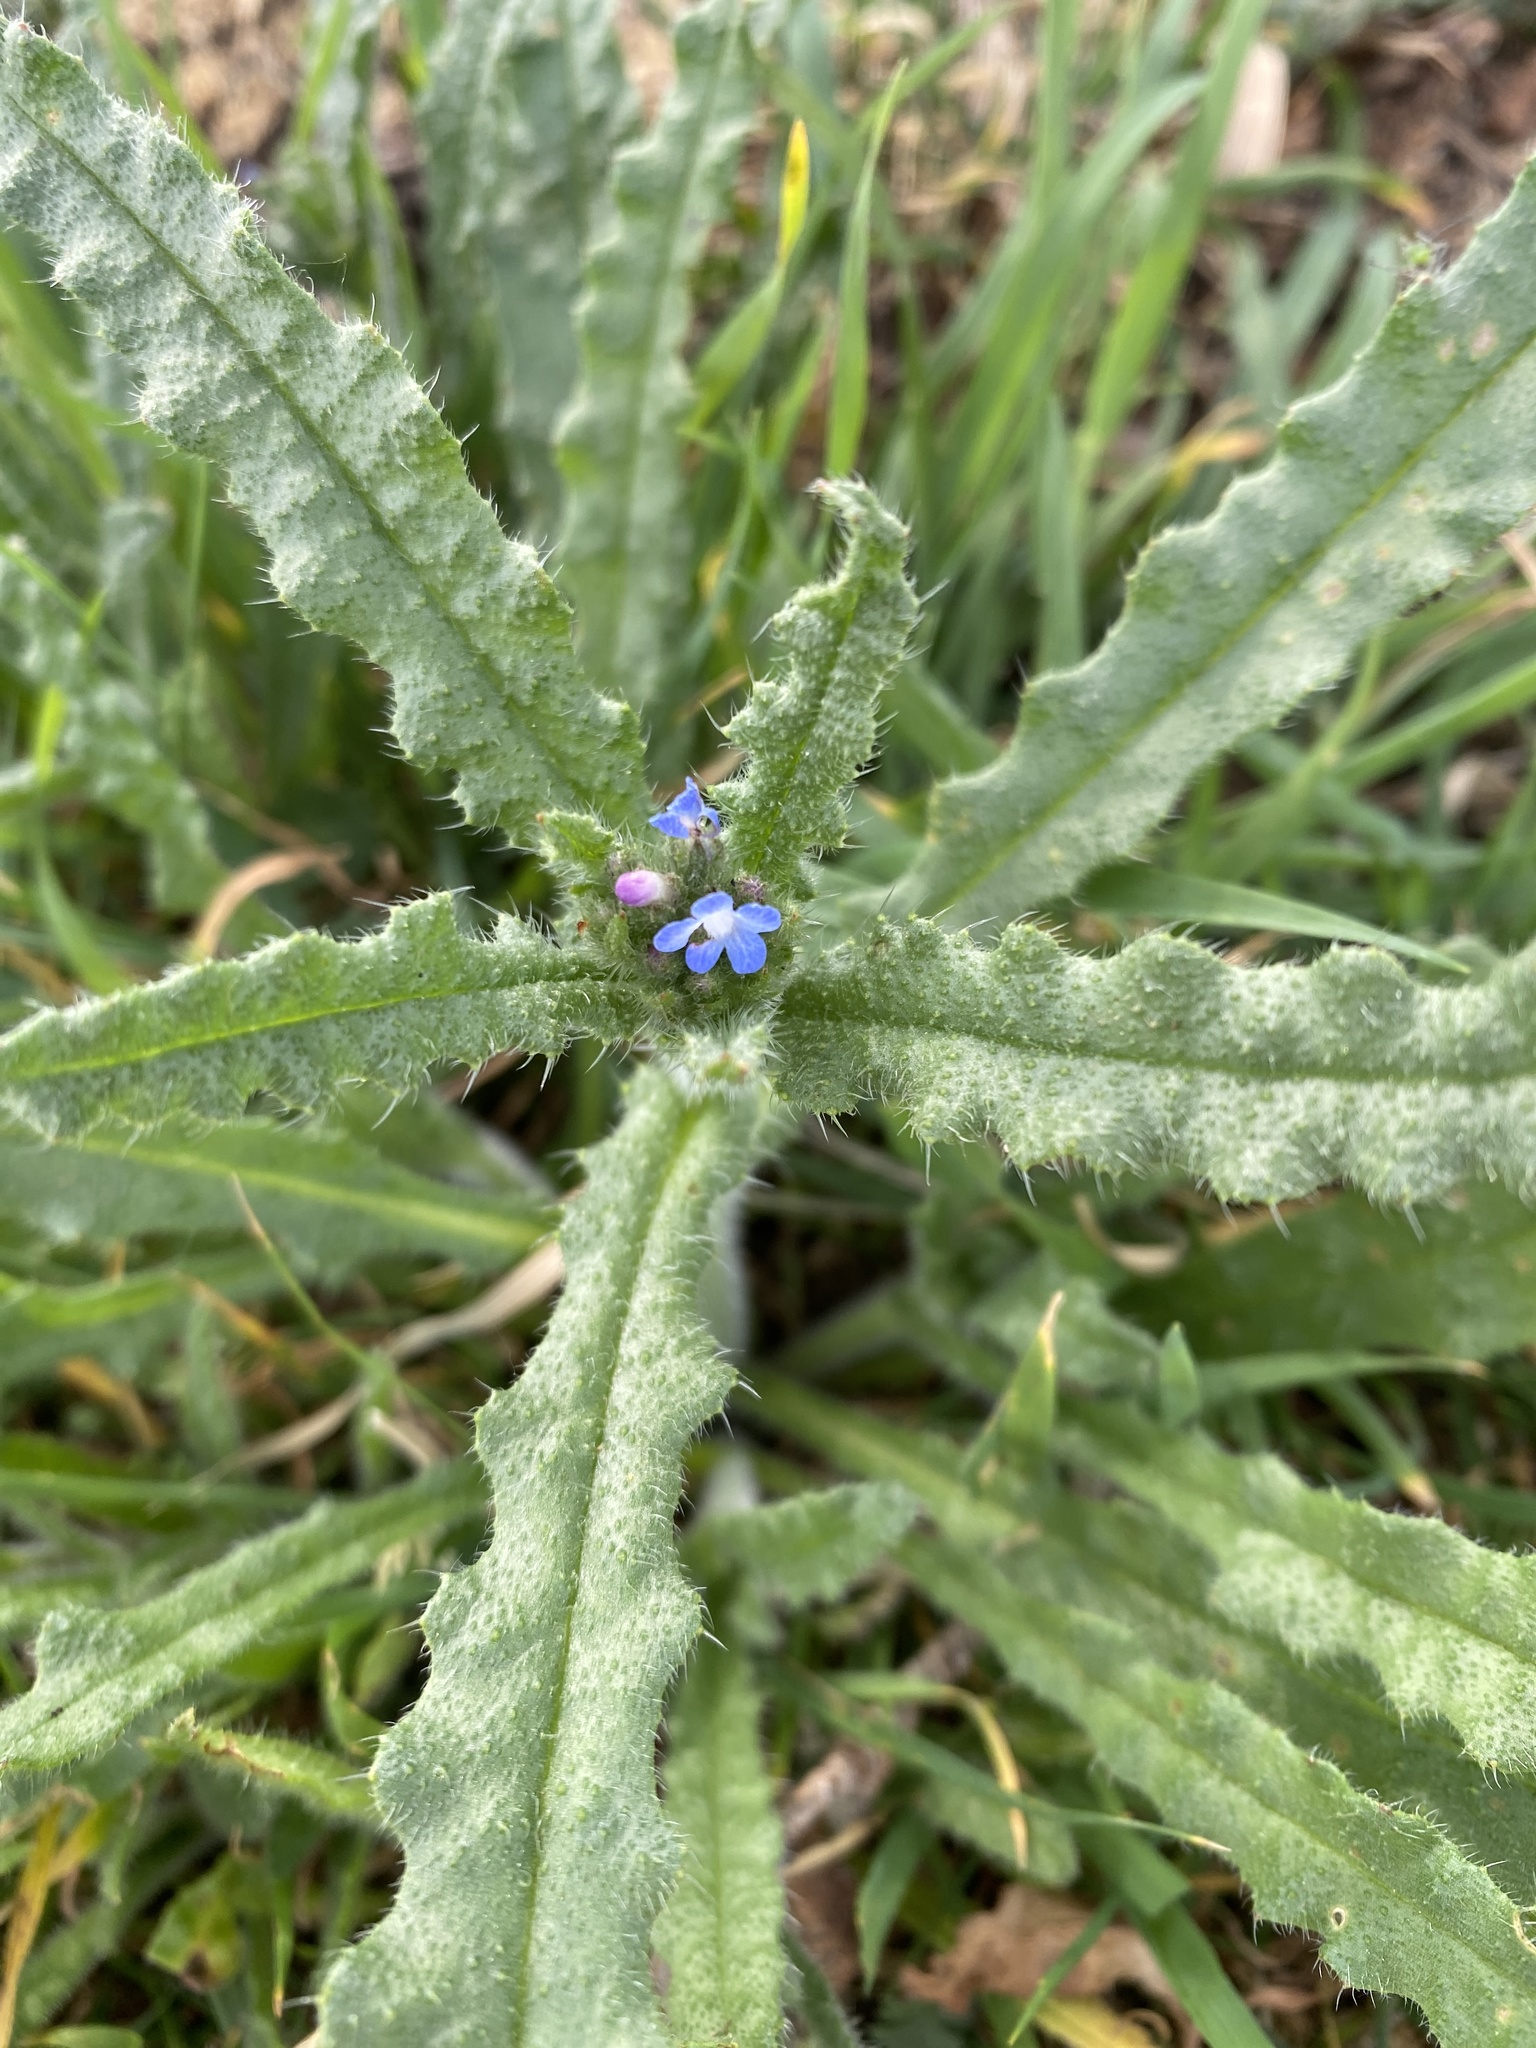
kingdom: Plantae
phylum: Tracheophyta
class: Magnoliopsida
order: Boraginales
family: Boraginaceae
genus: Lycopsis
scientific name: Lycopsis arvensis
